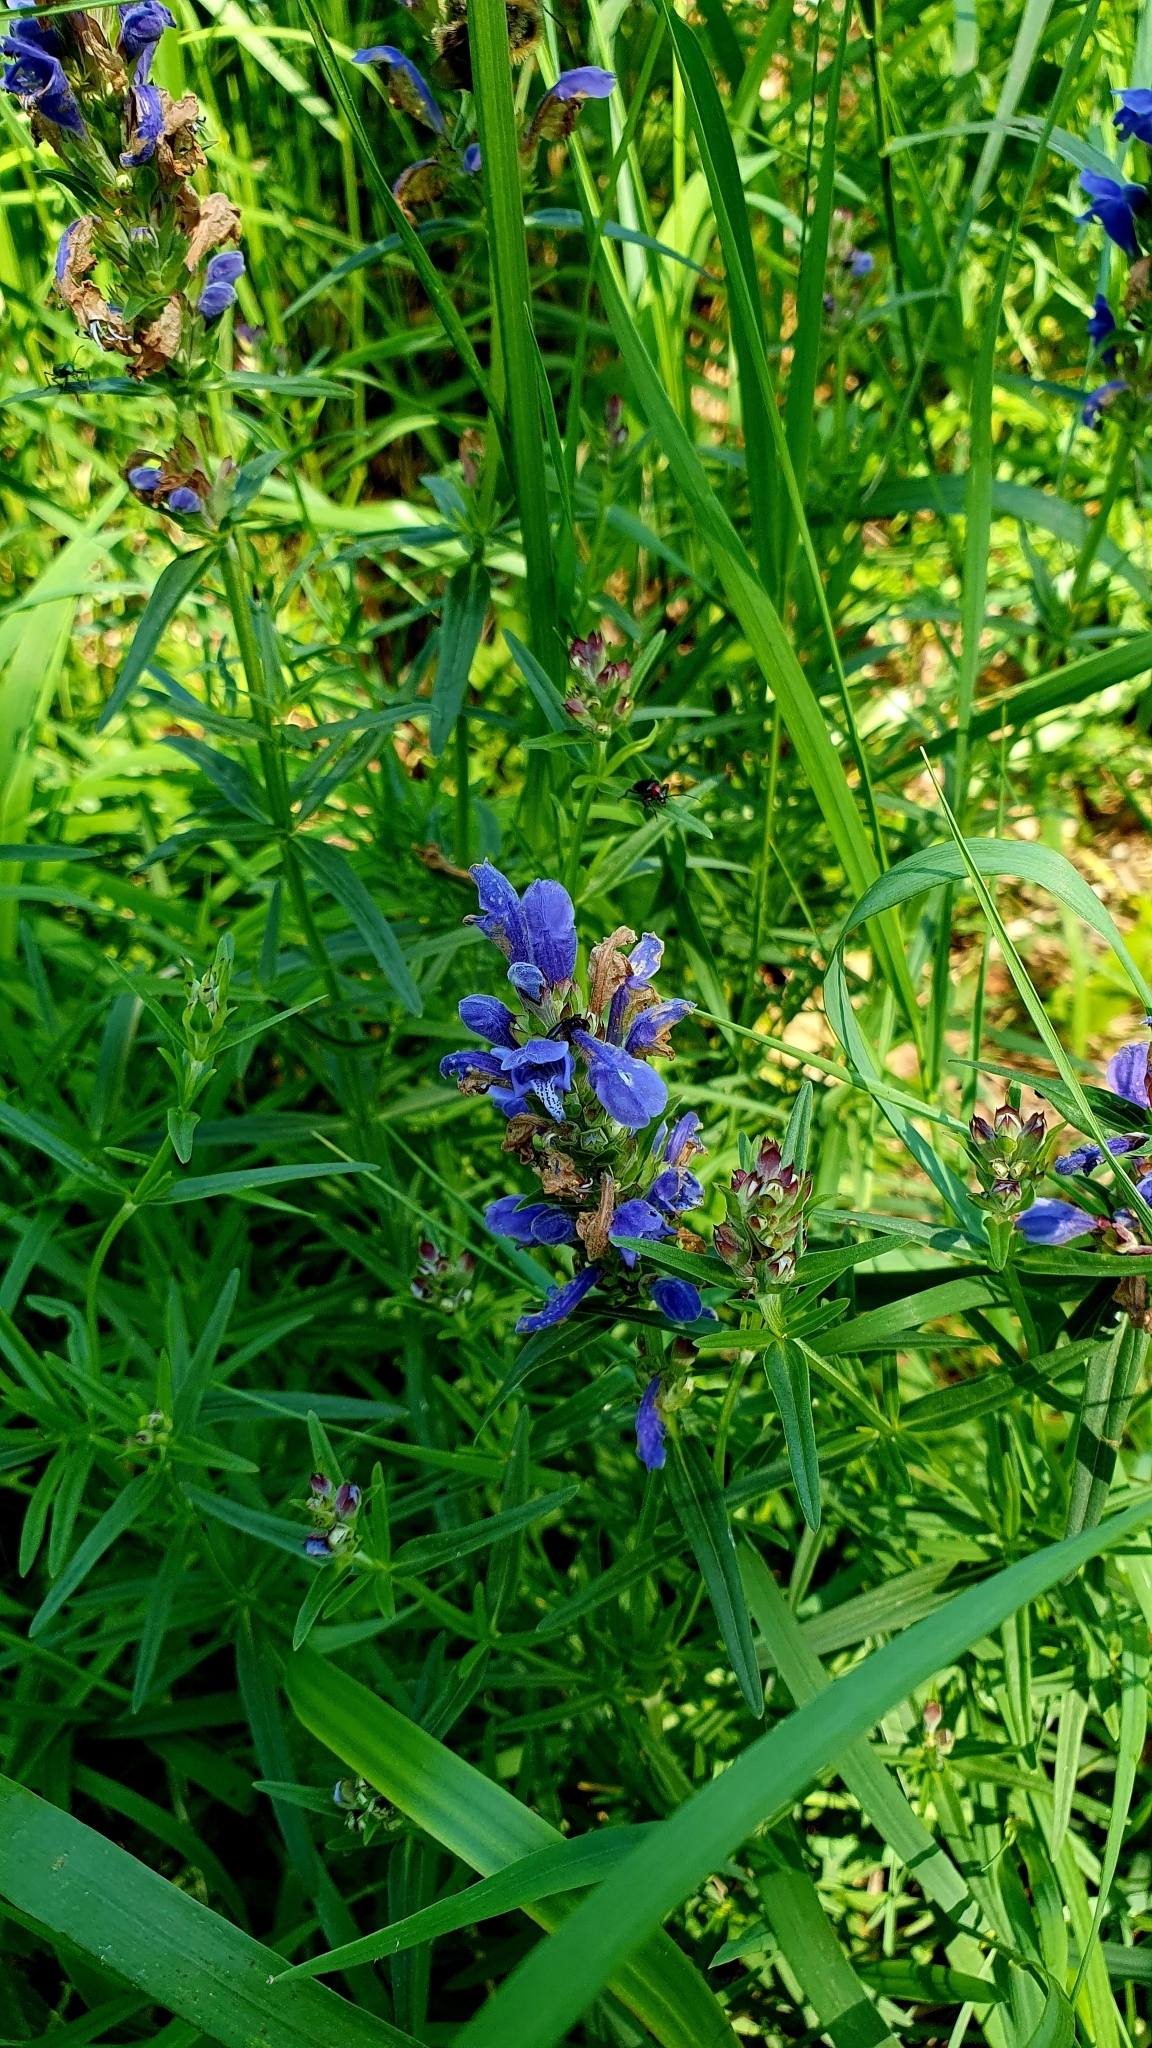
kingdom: Plantae
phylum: Tracheophyta
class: Magnoliopsida
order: Lamiales
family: Lamiaceae
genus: Dracocephalum
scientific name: Dracocephalum ruyschiana
